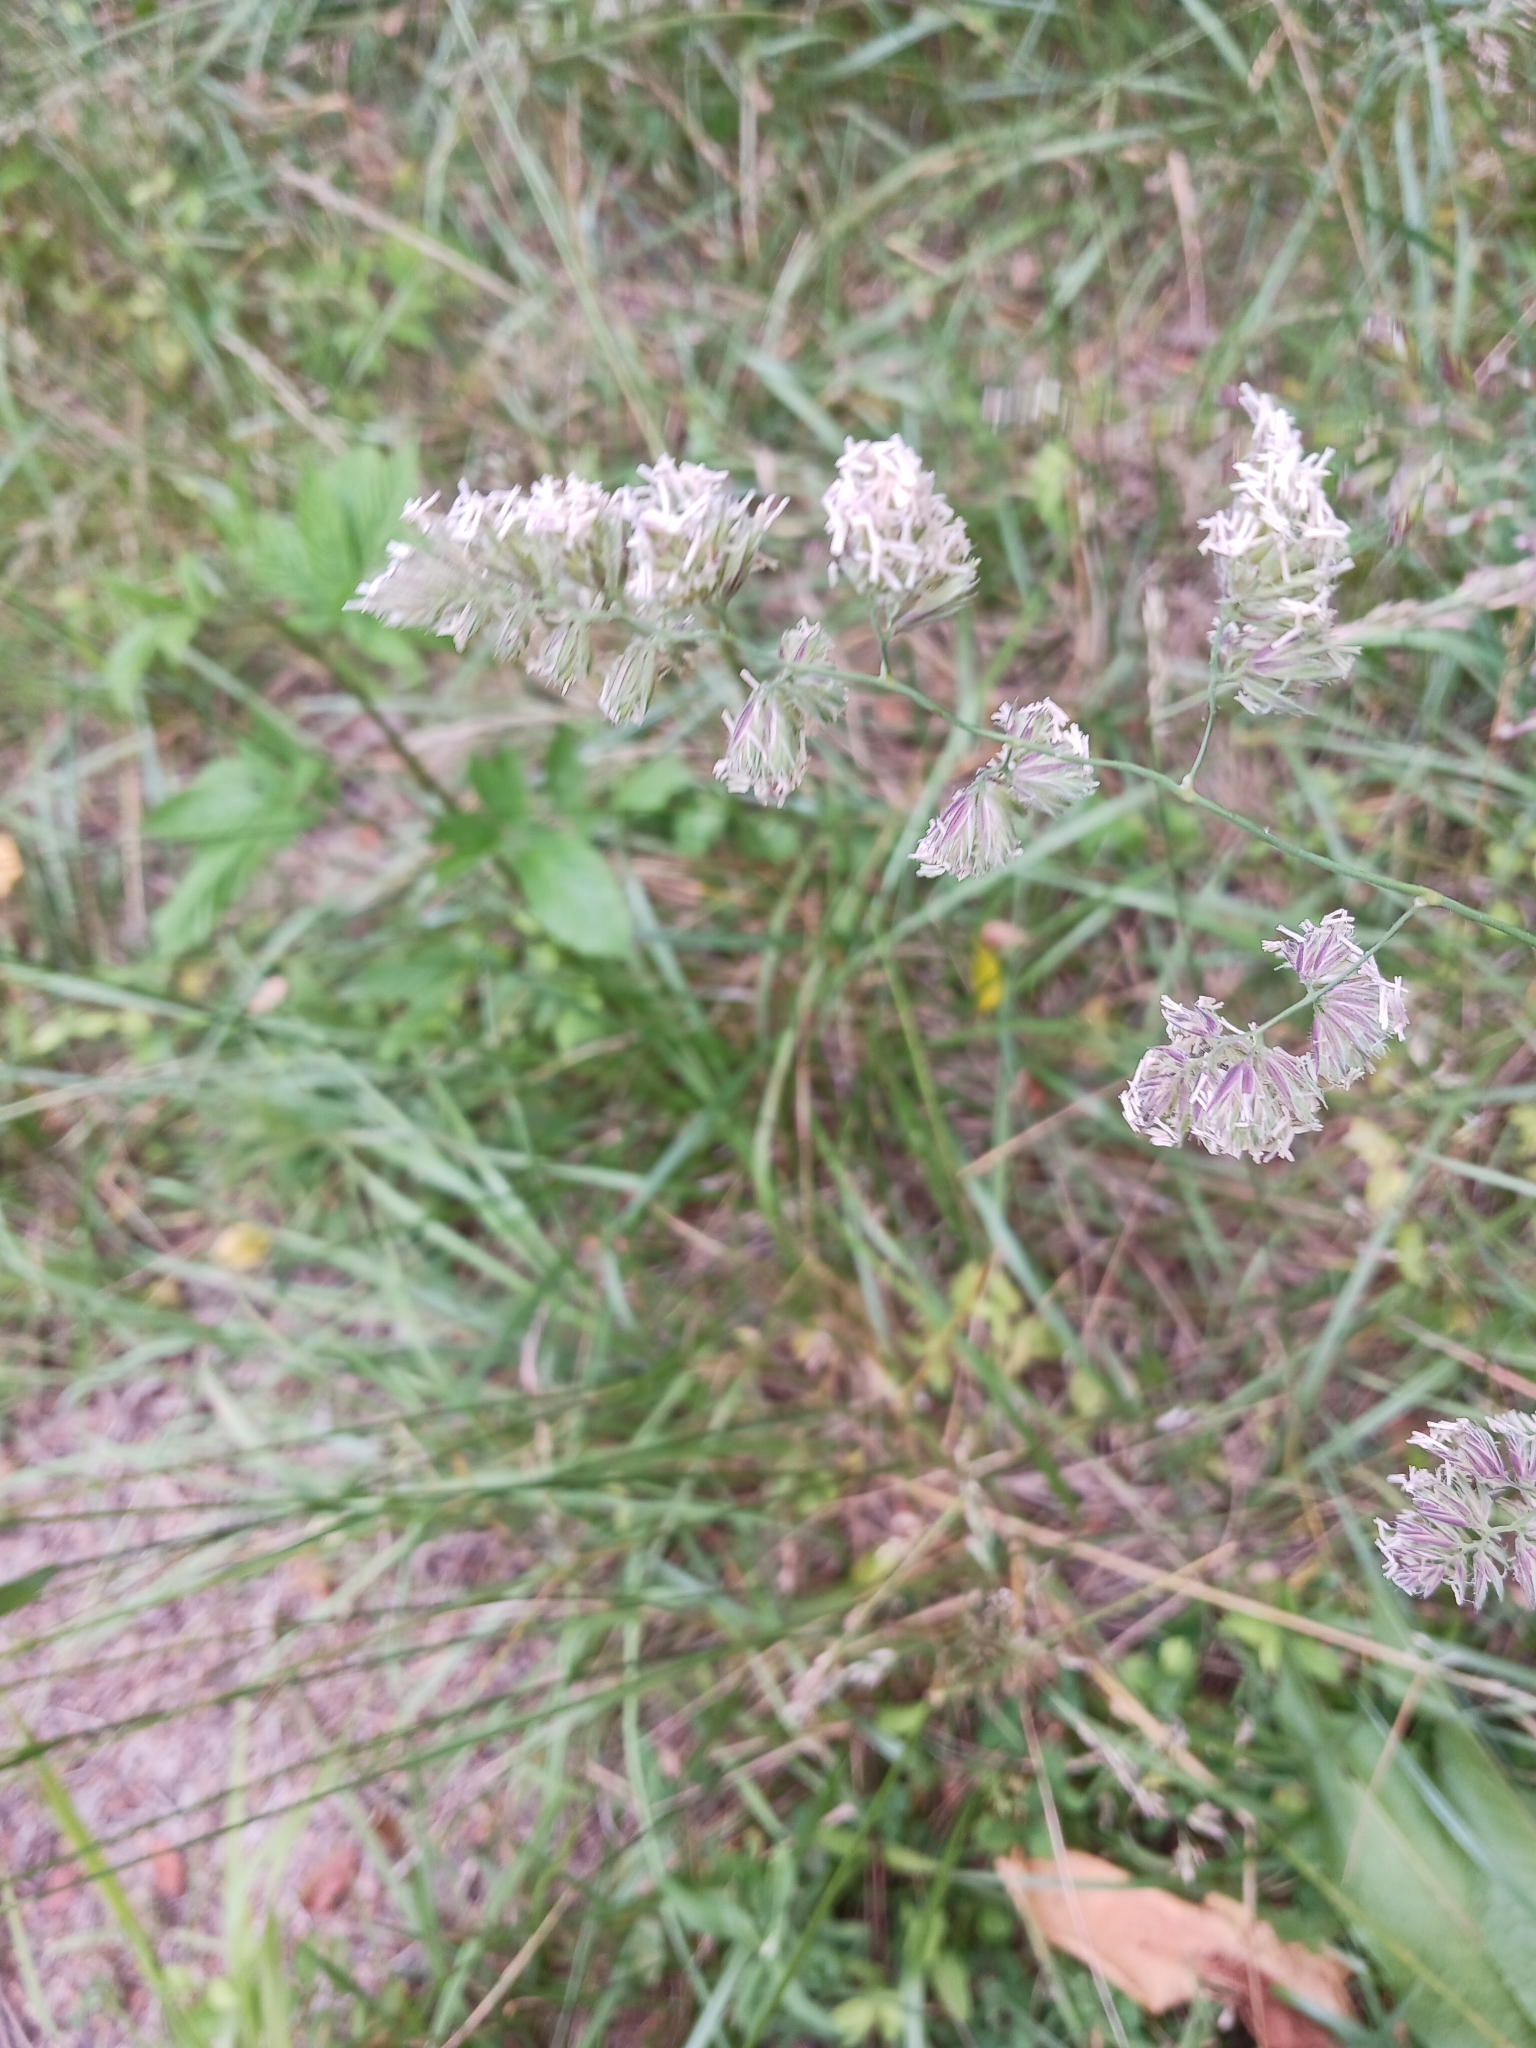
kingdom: Plantae
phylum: Tracheophyta
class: Liliopsida
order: Poales
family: Poaceae
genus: Dactylis
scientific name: Dactylis glomerata
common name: Orchardgrass
